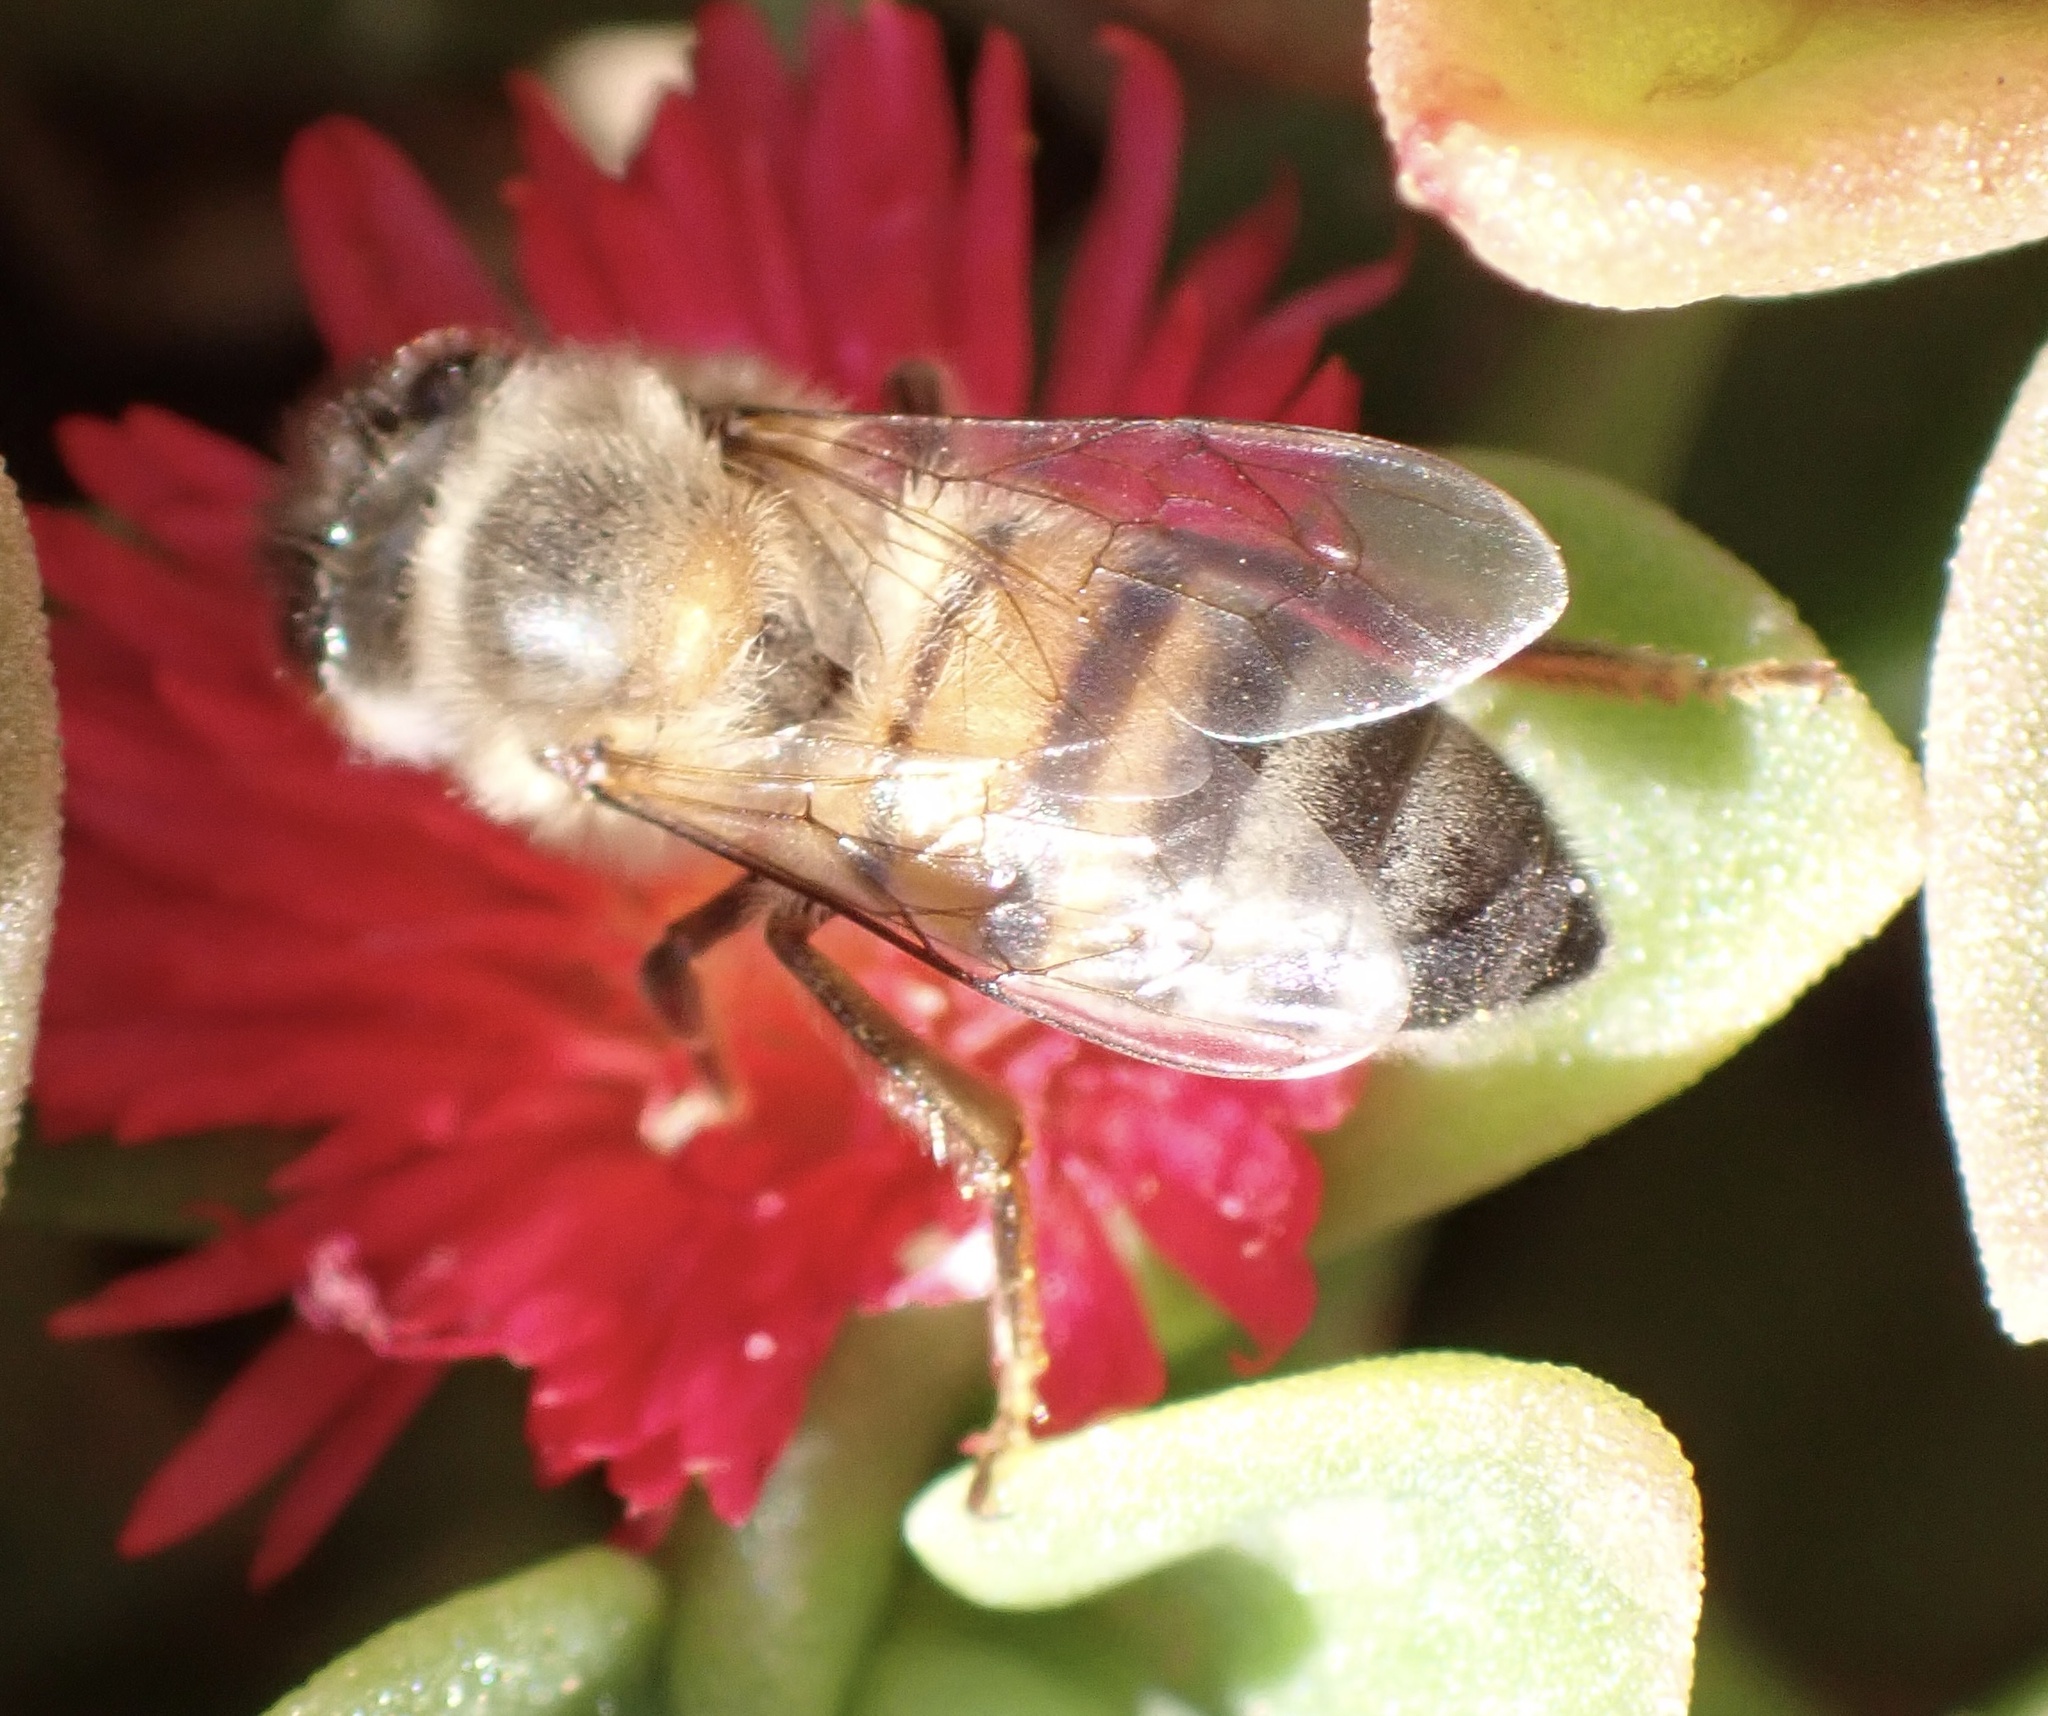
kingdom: Animalia
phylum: Arthropoda
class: Insecta
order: Hymenoptera
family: Apidae
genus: Apis
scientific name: Apis mellifera
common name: Honey bee
